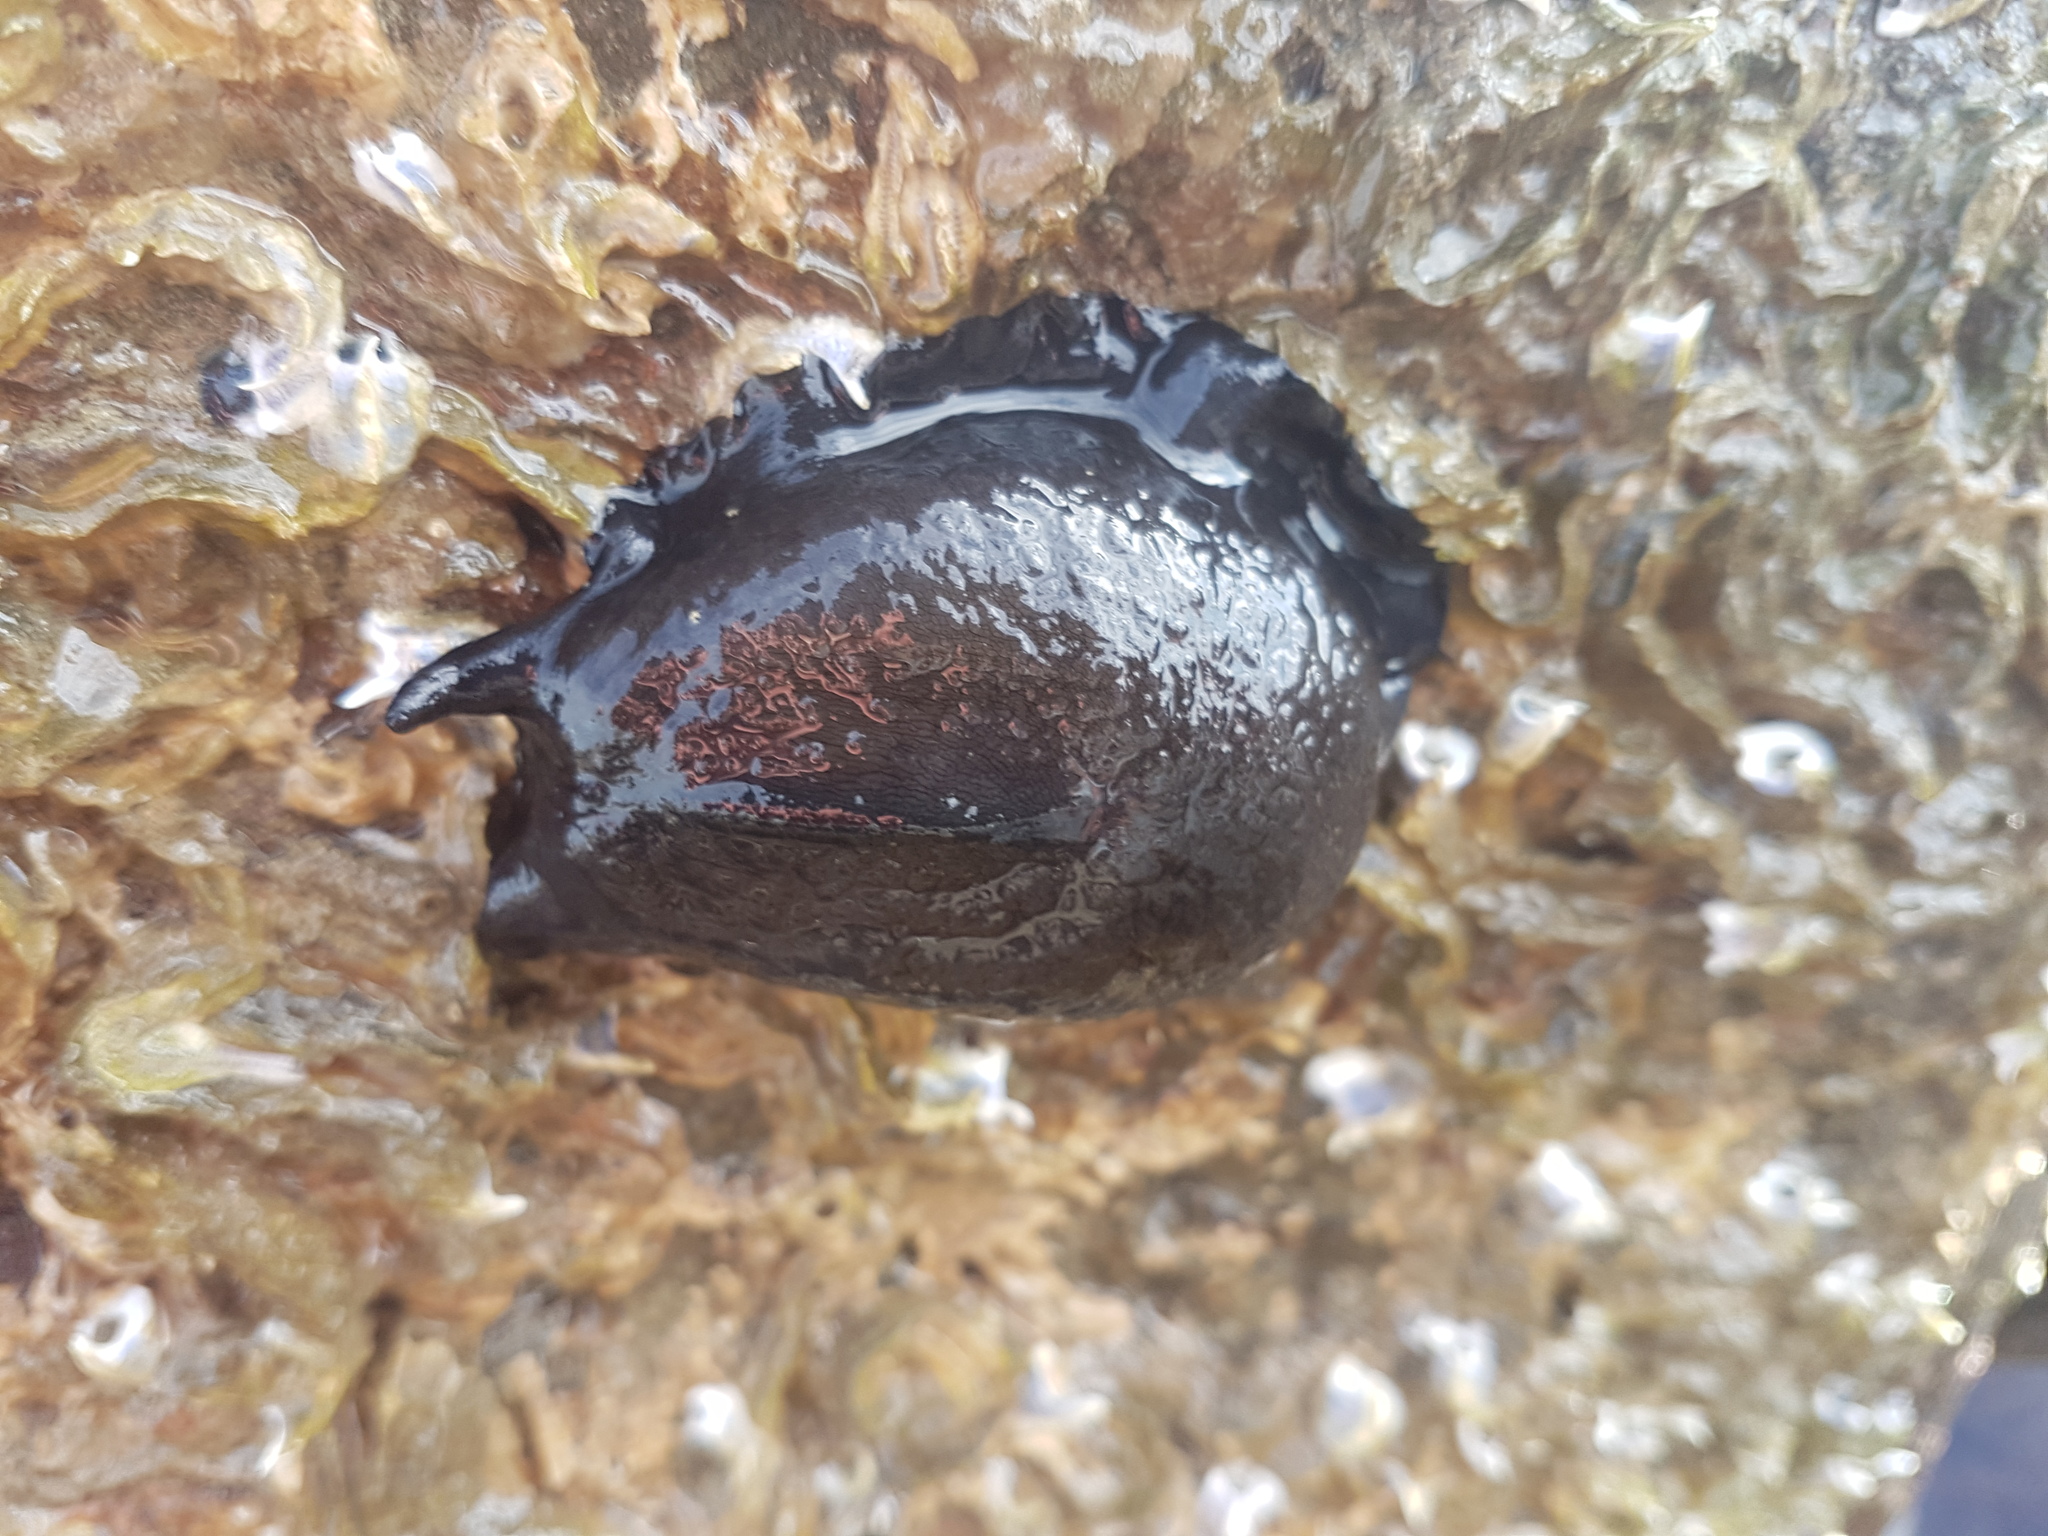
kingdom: Animalia
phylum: Mollusca
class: Gastropoda
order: Lepetellida
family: Fissurellidae
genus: Scutus
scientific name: Scutus breviculus
